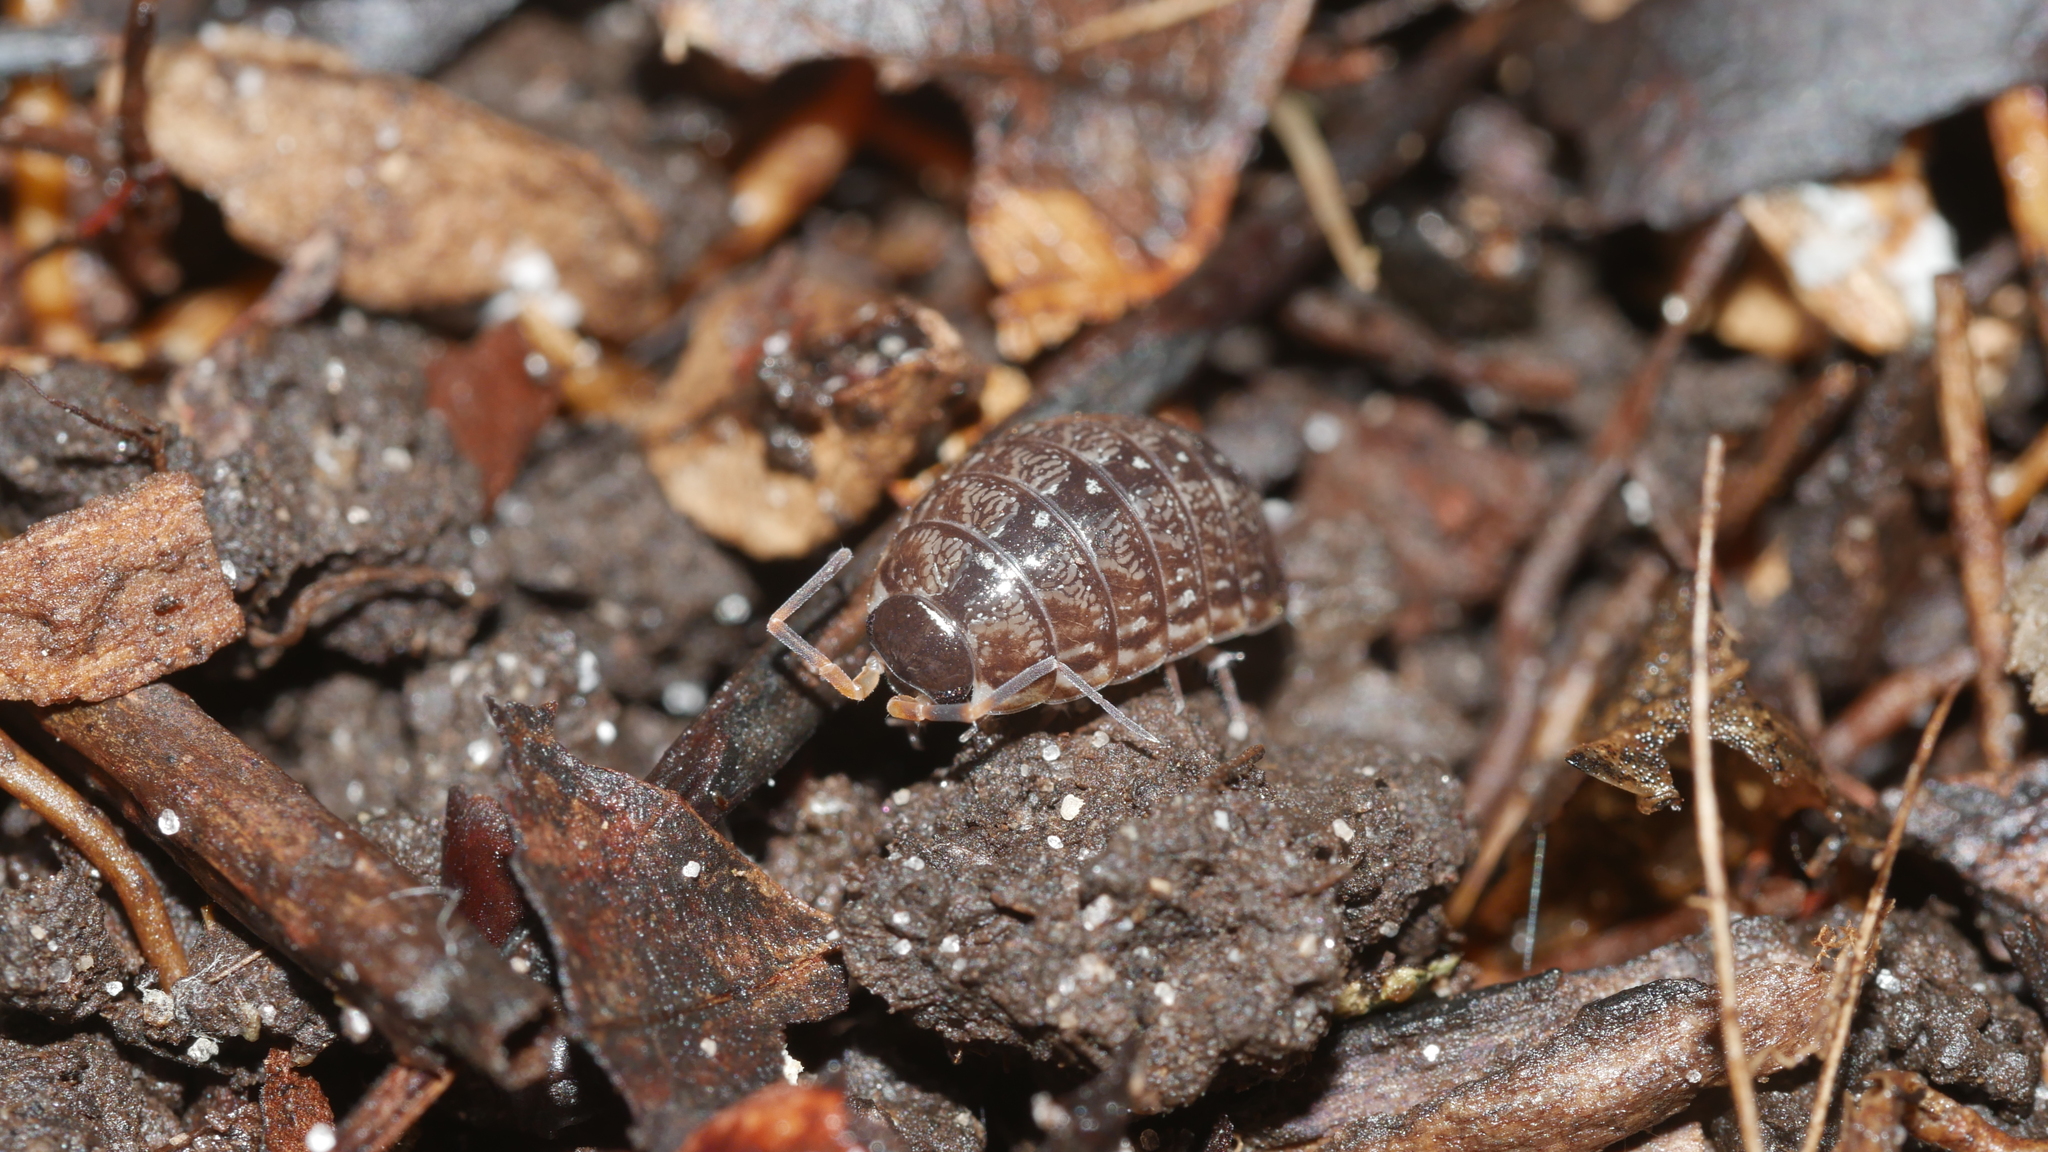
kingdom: Animalia
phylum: Arthropoda
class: Malacostraca
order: Isopoda
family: Philosciidae
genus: Philoscia
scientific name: Philoscia muscorum
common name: Common striped woodlouse
